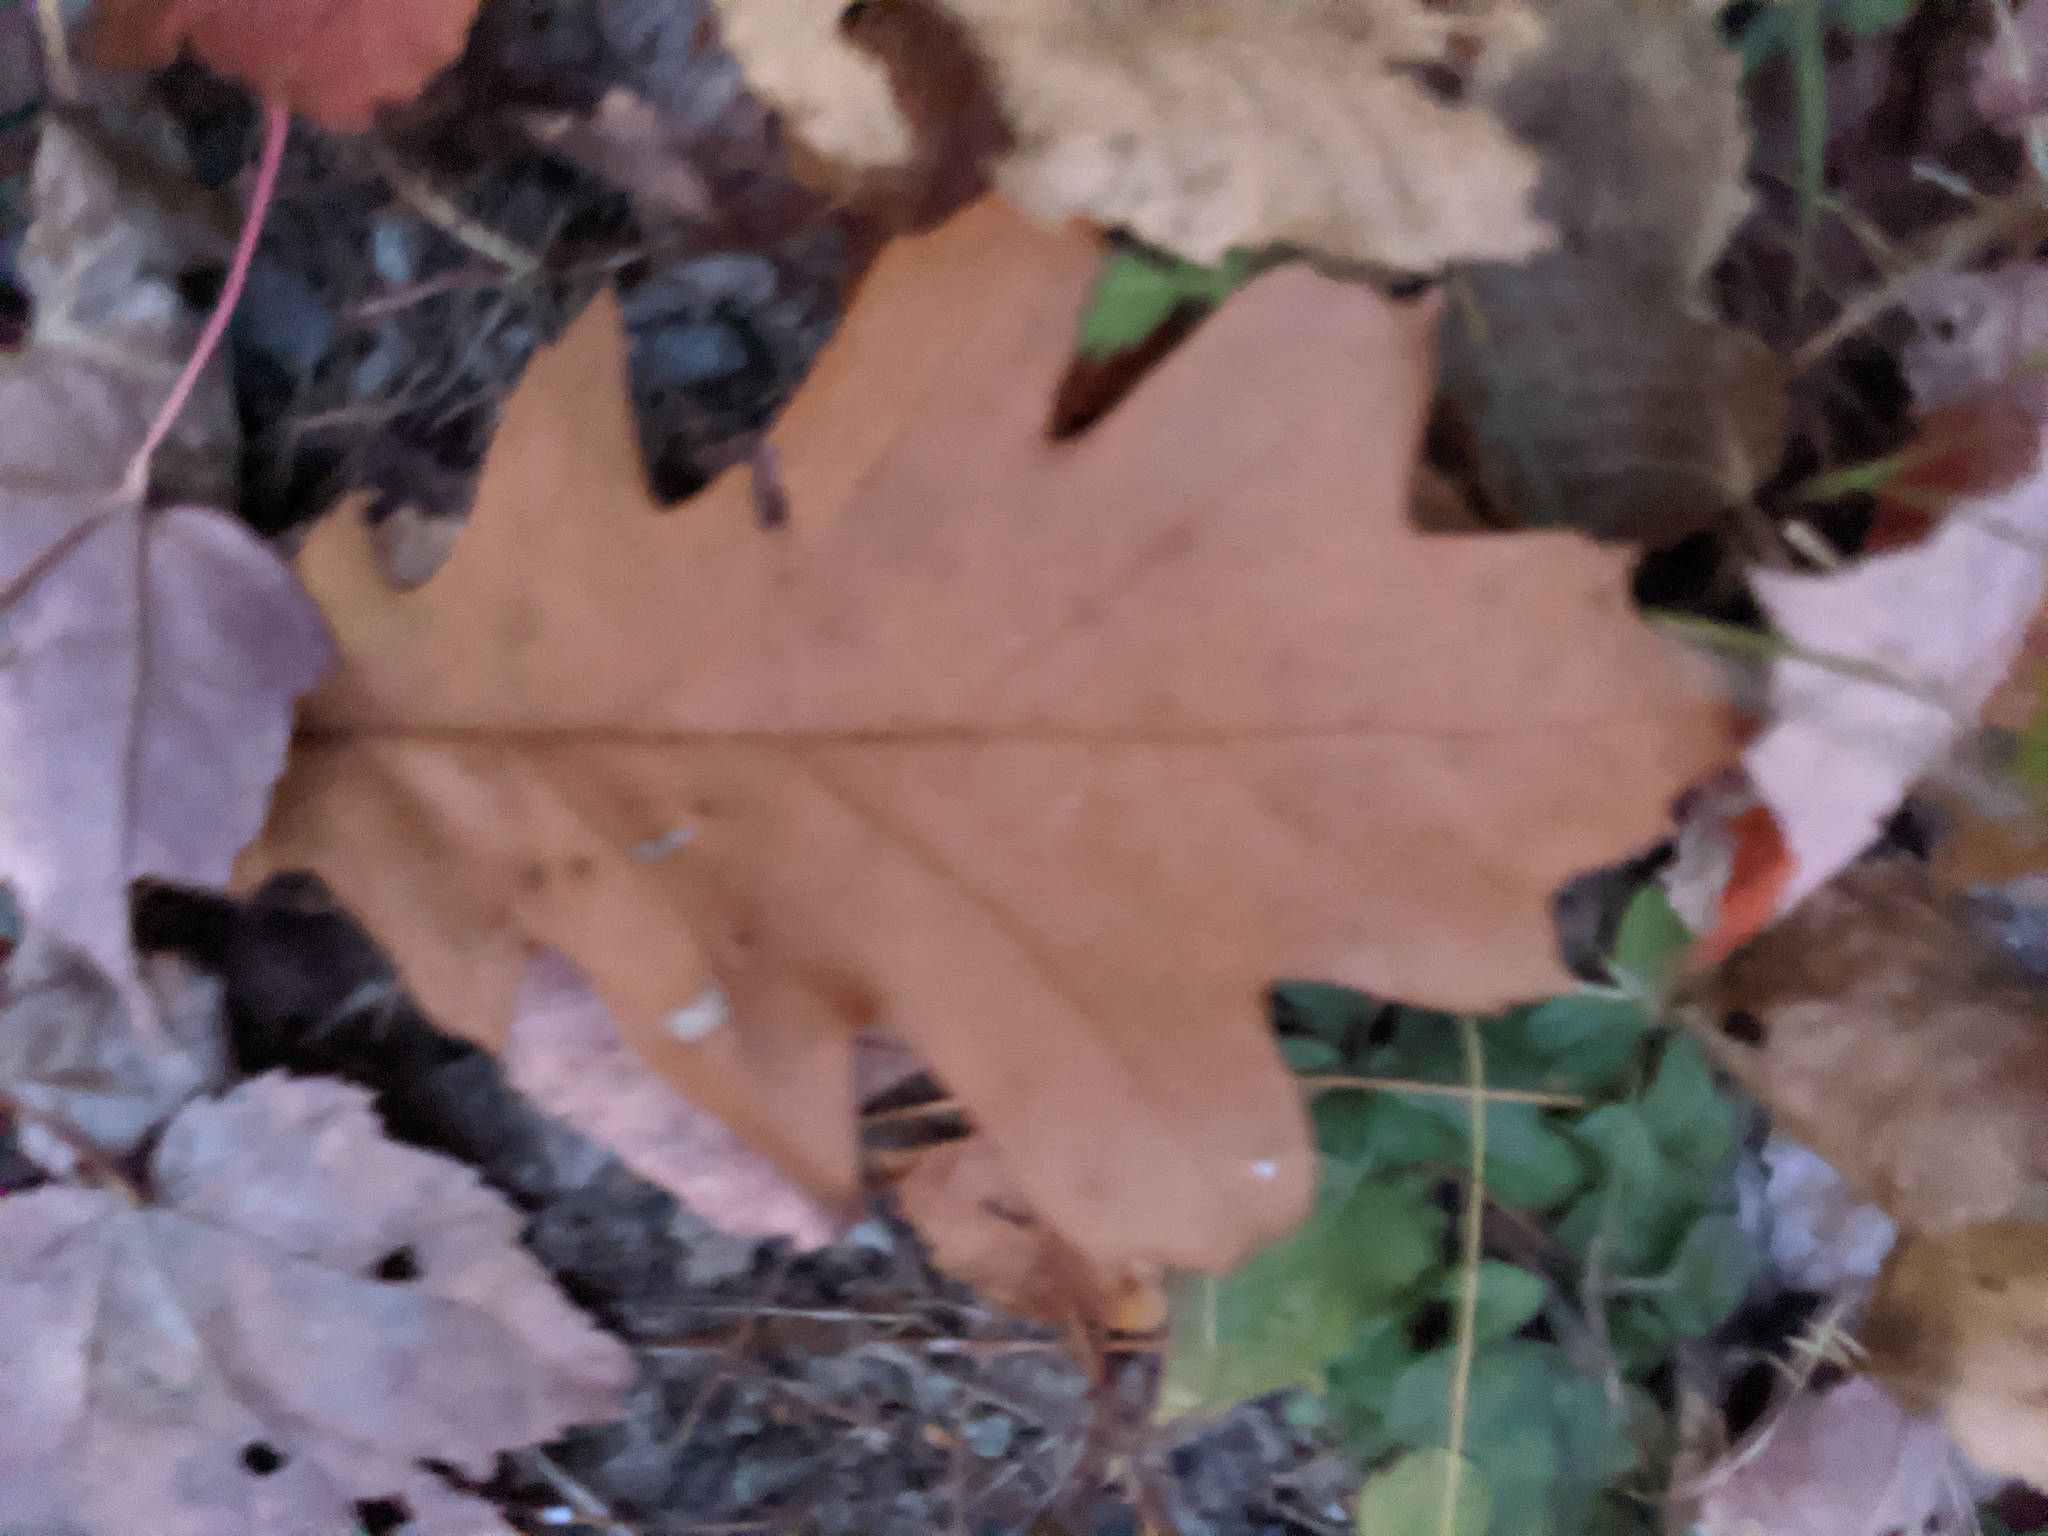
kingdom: Plantae
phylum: Tracheophyta
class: Magnoliopsida
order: Fagales
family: Fagaceae
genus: Quercus
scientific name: Quercus rubra
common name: Red oak
